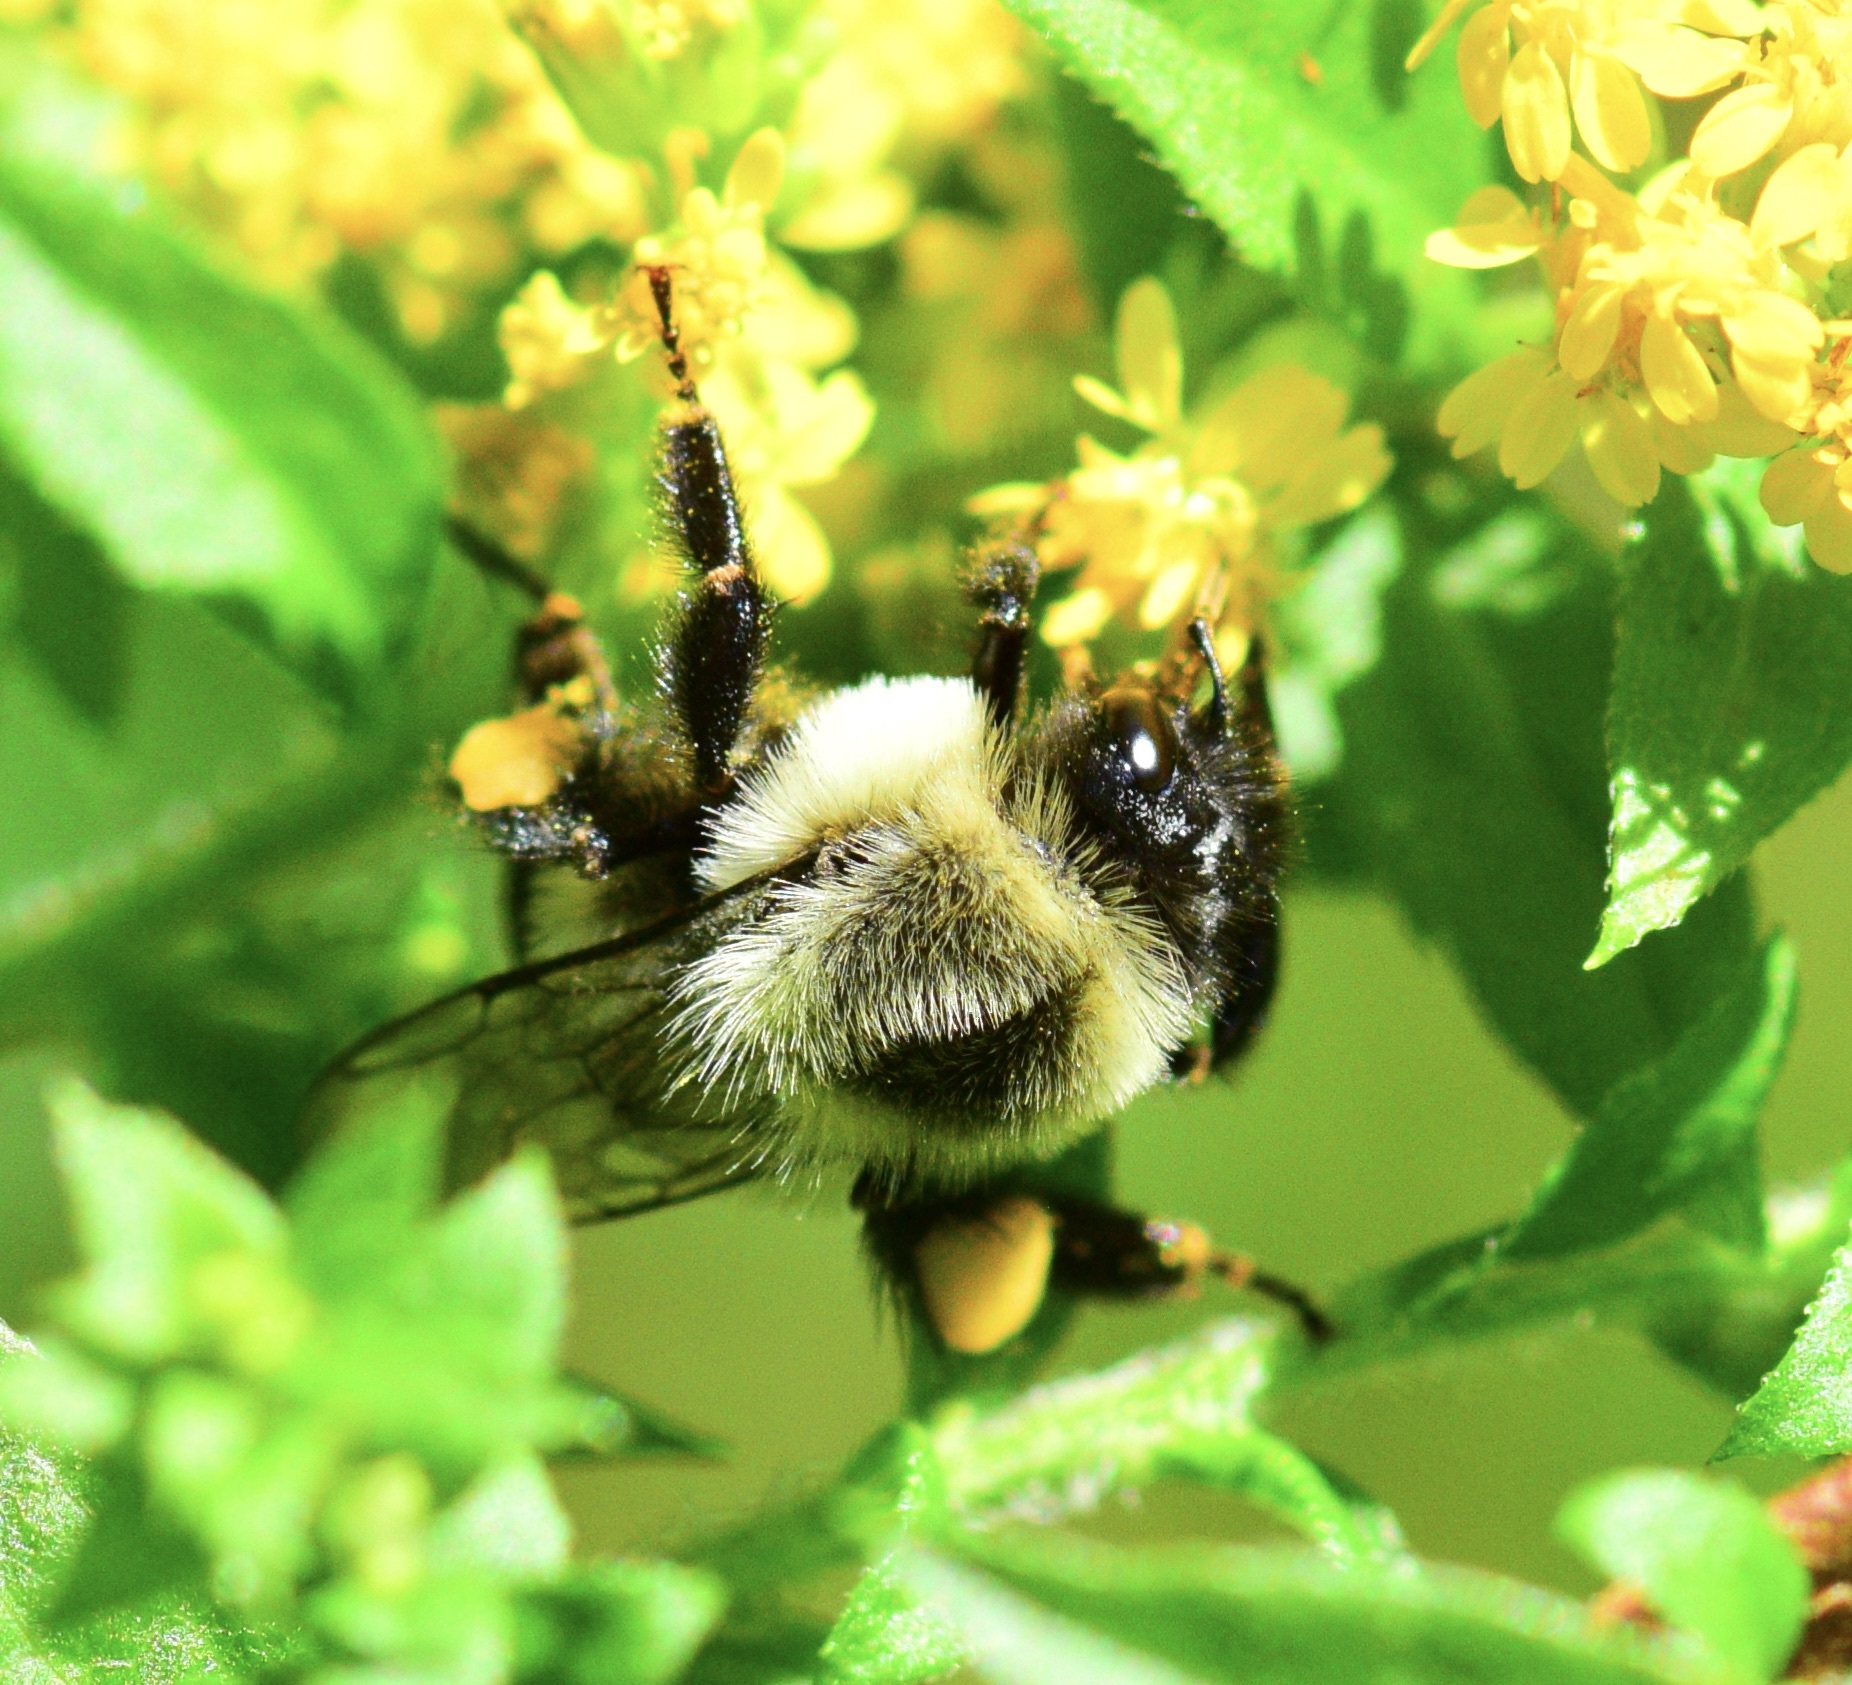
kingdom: Animalia
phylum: Arthropoda
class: Insecta
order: Hymenoptera
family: Apidae
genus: Bombus
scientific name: Bombus impatiens
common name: Common eastern bumble bee
